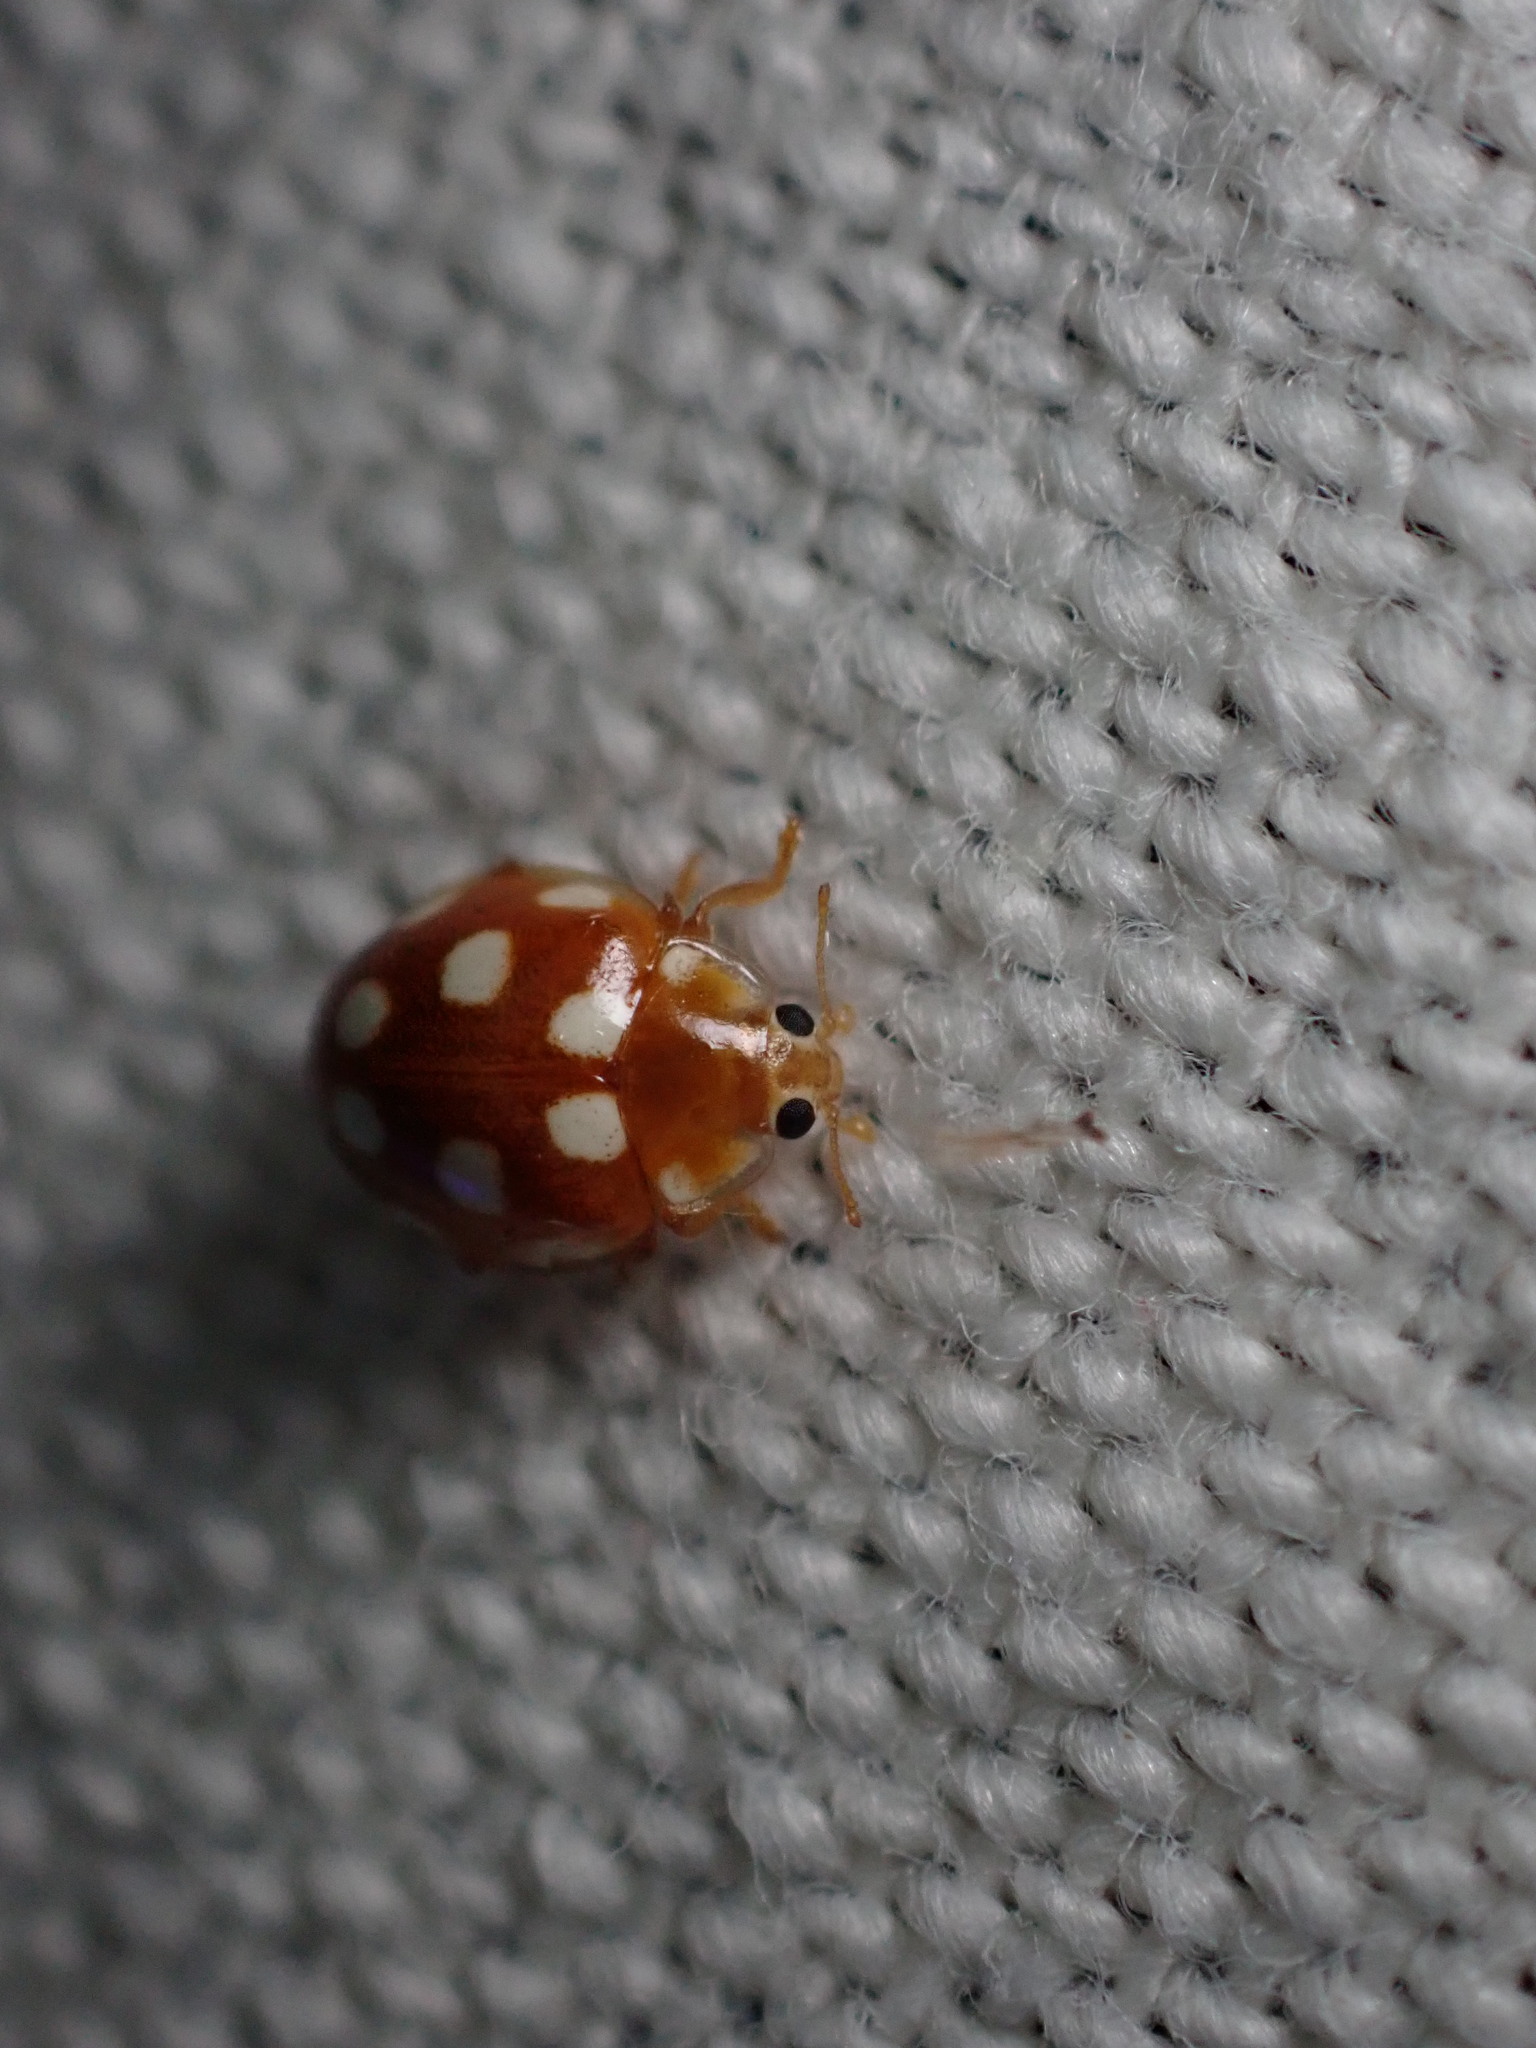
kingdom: Animalia
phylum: Arthropoda
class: Insecta
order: Coleoptera
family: Coccinellidae
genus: Vibidia
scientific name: Vibidia duodecimguttata
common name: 12-spot ladybird
